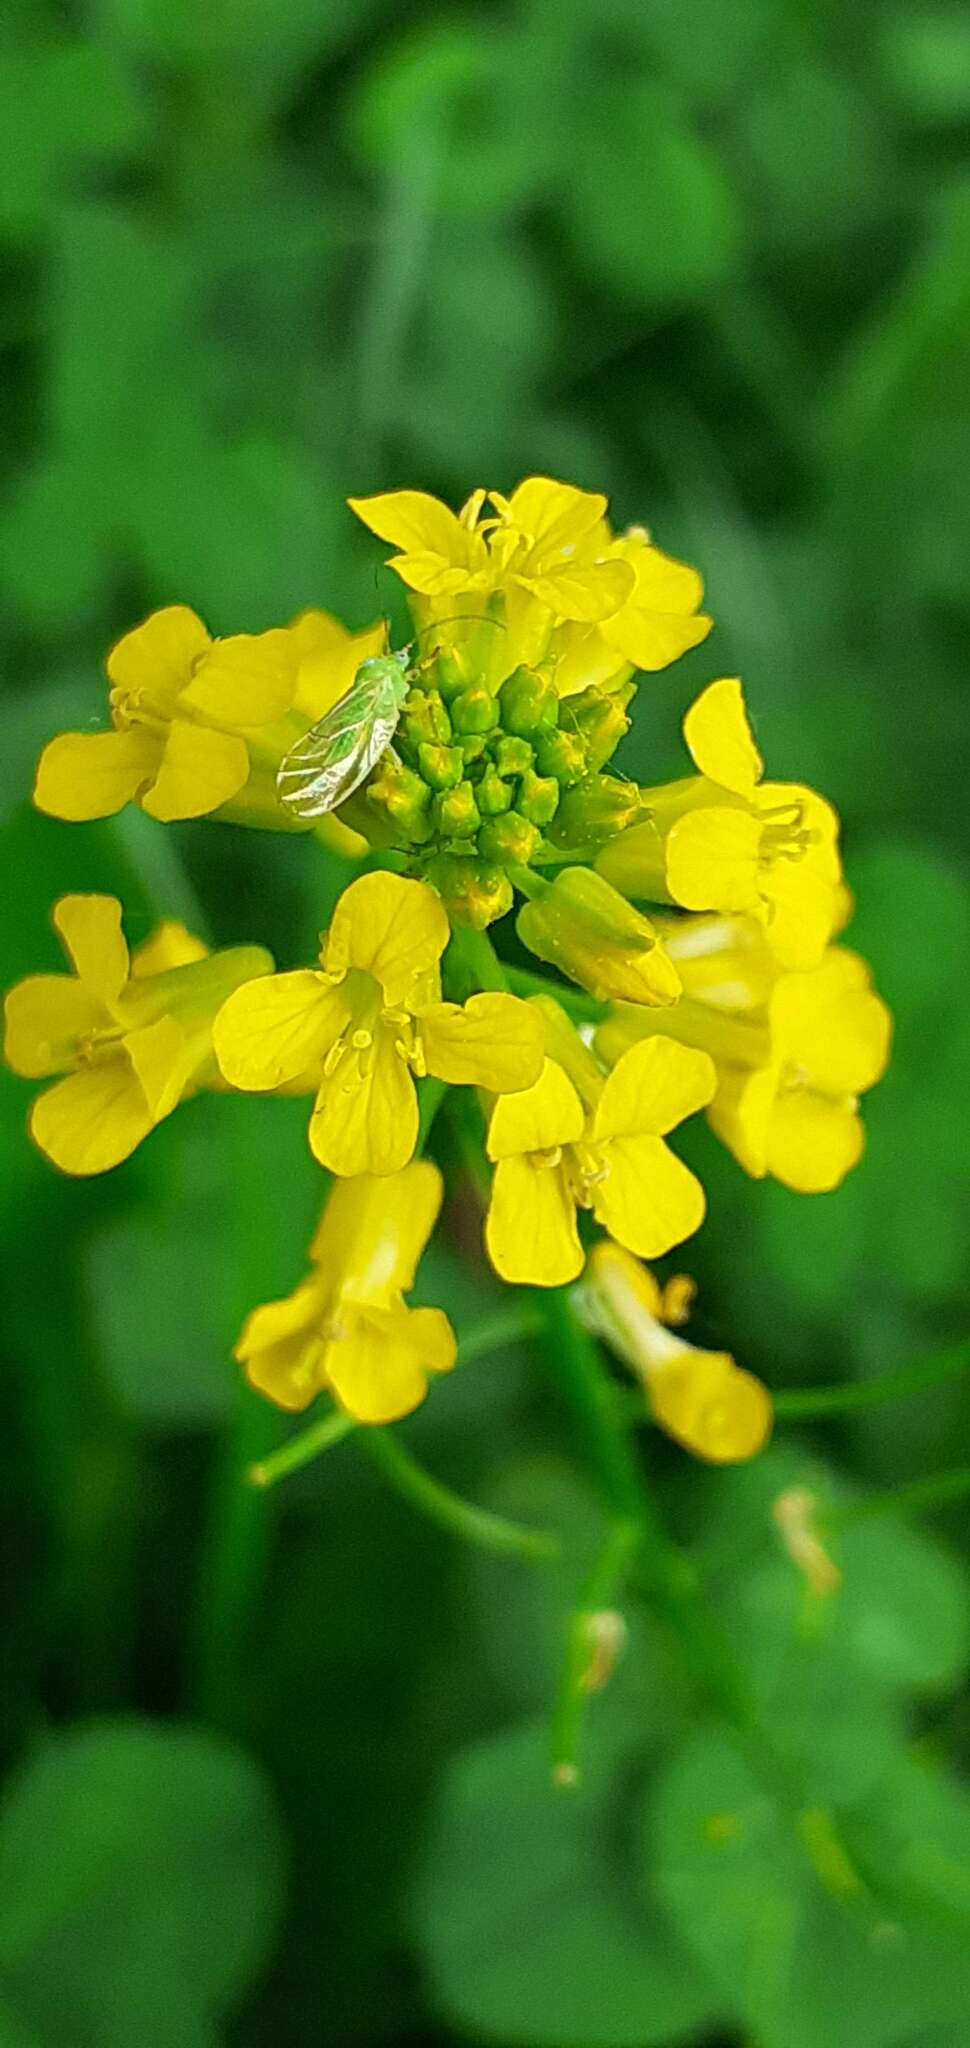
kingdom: Plantae
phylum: Tracheophyta
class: Magnoliopsida
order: Brassicales
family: Brassicaceae
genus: Barbarea
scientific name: Barbarea vulgaris
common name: Cressy-greens
